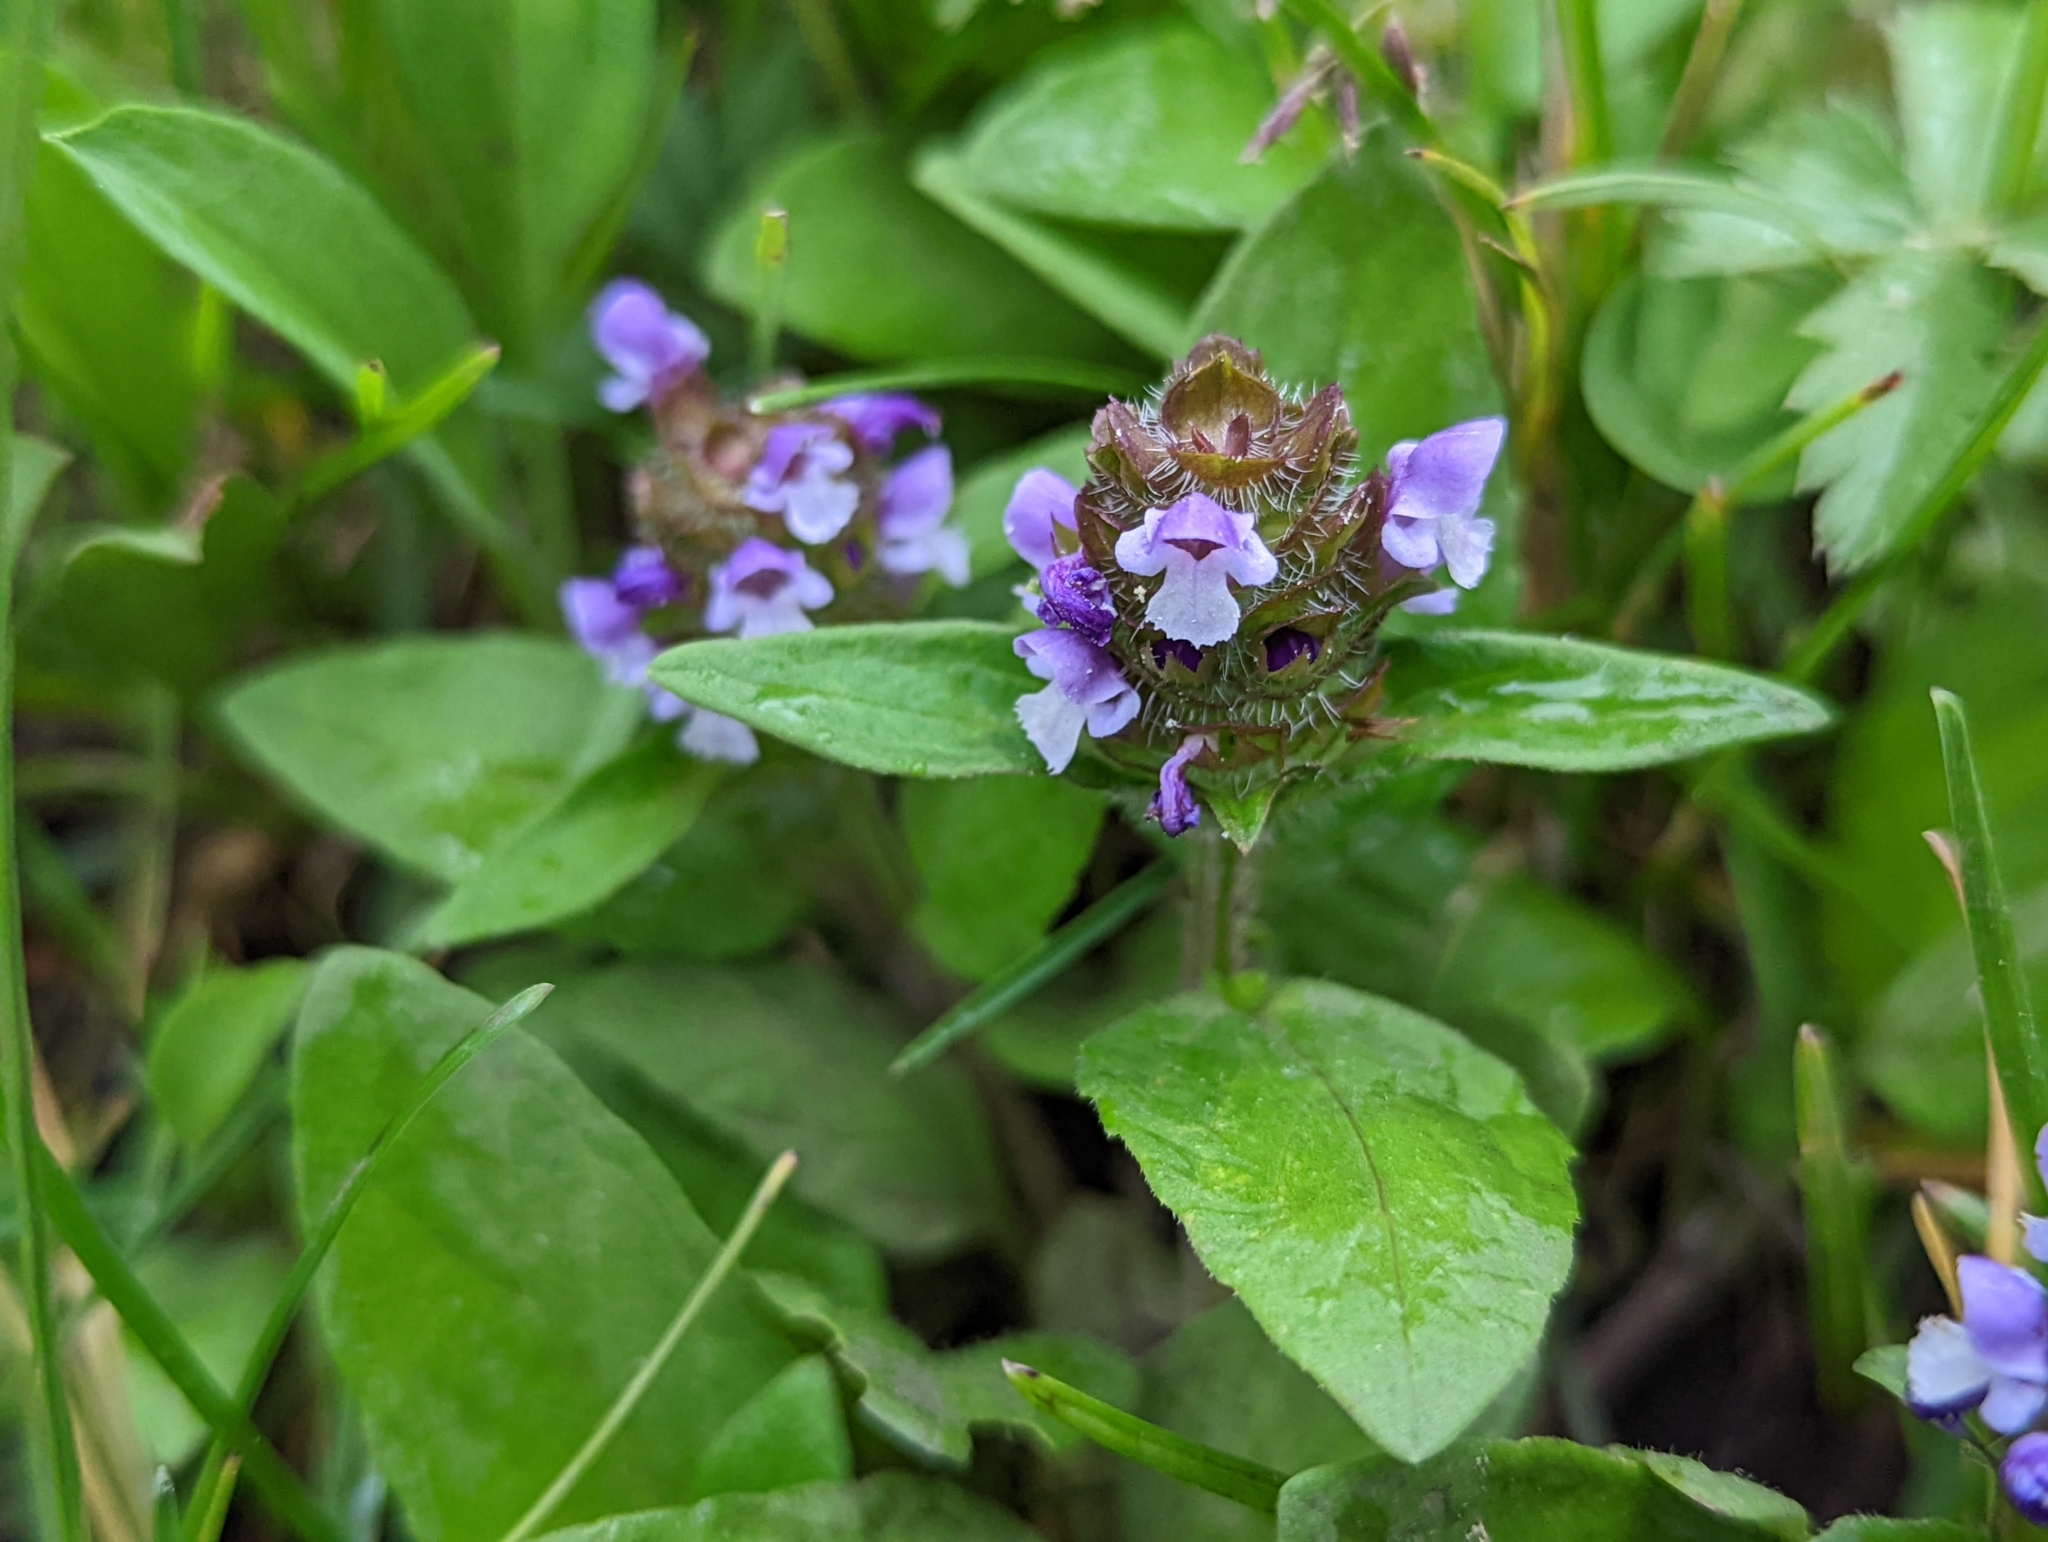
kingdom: Plantae
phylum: Tracheophyta
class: Magnoliopsida
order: Lamiales
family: Lamiaceae
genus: Prunella
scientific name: Prunella vulgaris
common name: Heal-all
